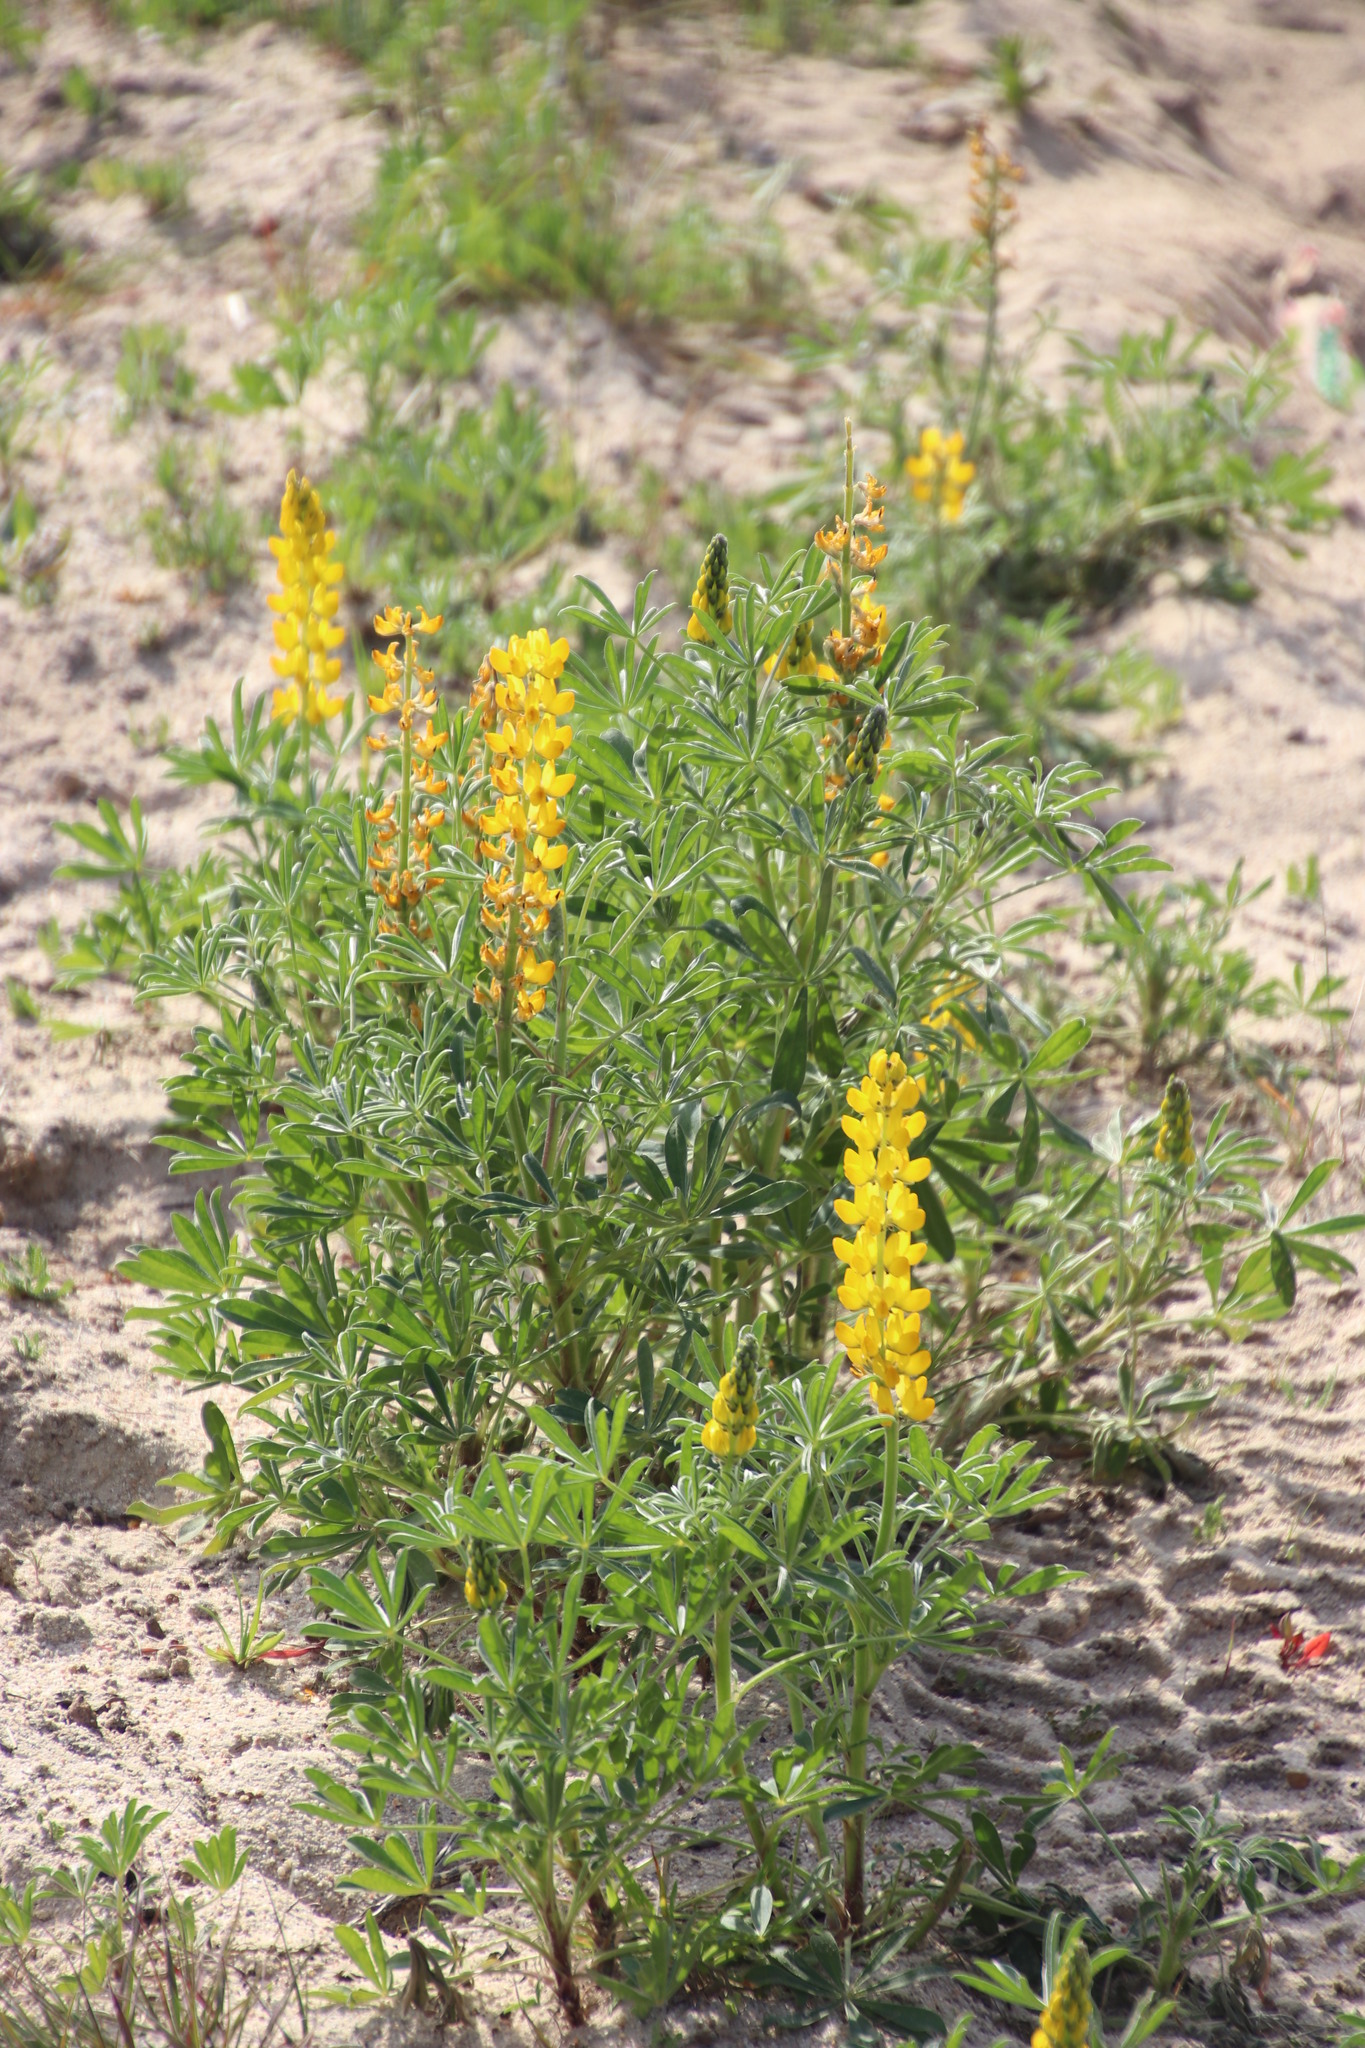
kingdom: Plantae
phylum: Tracheophyta
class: Magnoliopsida
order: Fabales
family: Fabaceae
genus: Lupinus
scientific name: Lupinus luteus
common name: European yellow lupine
